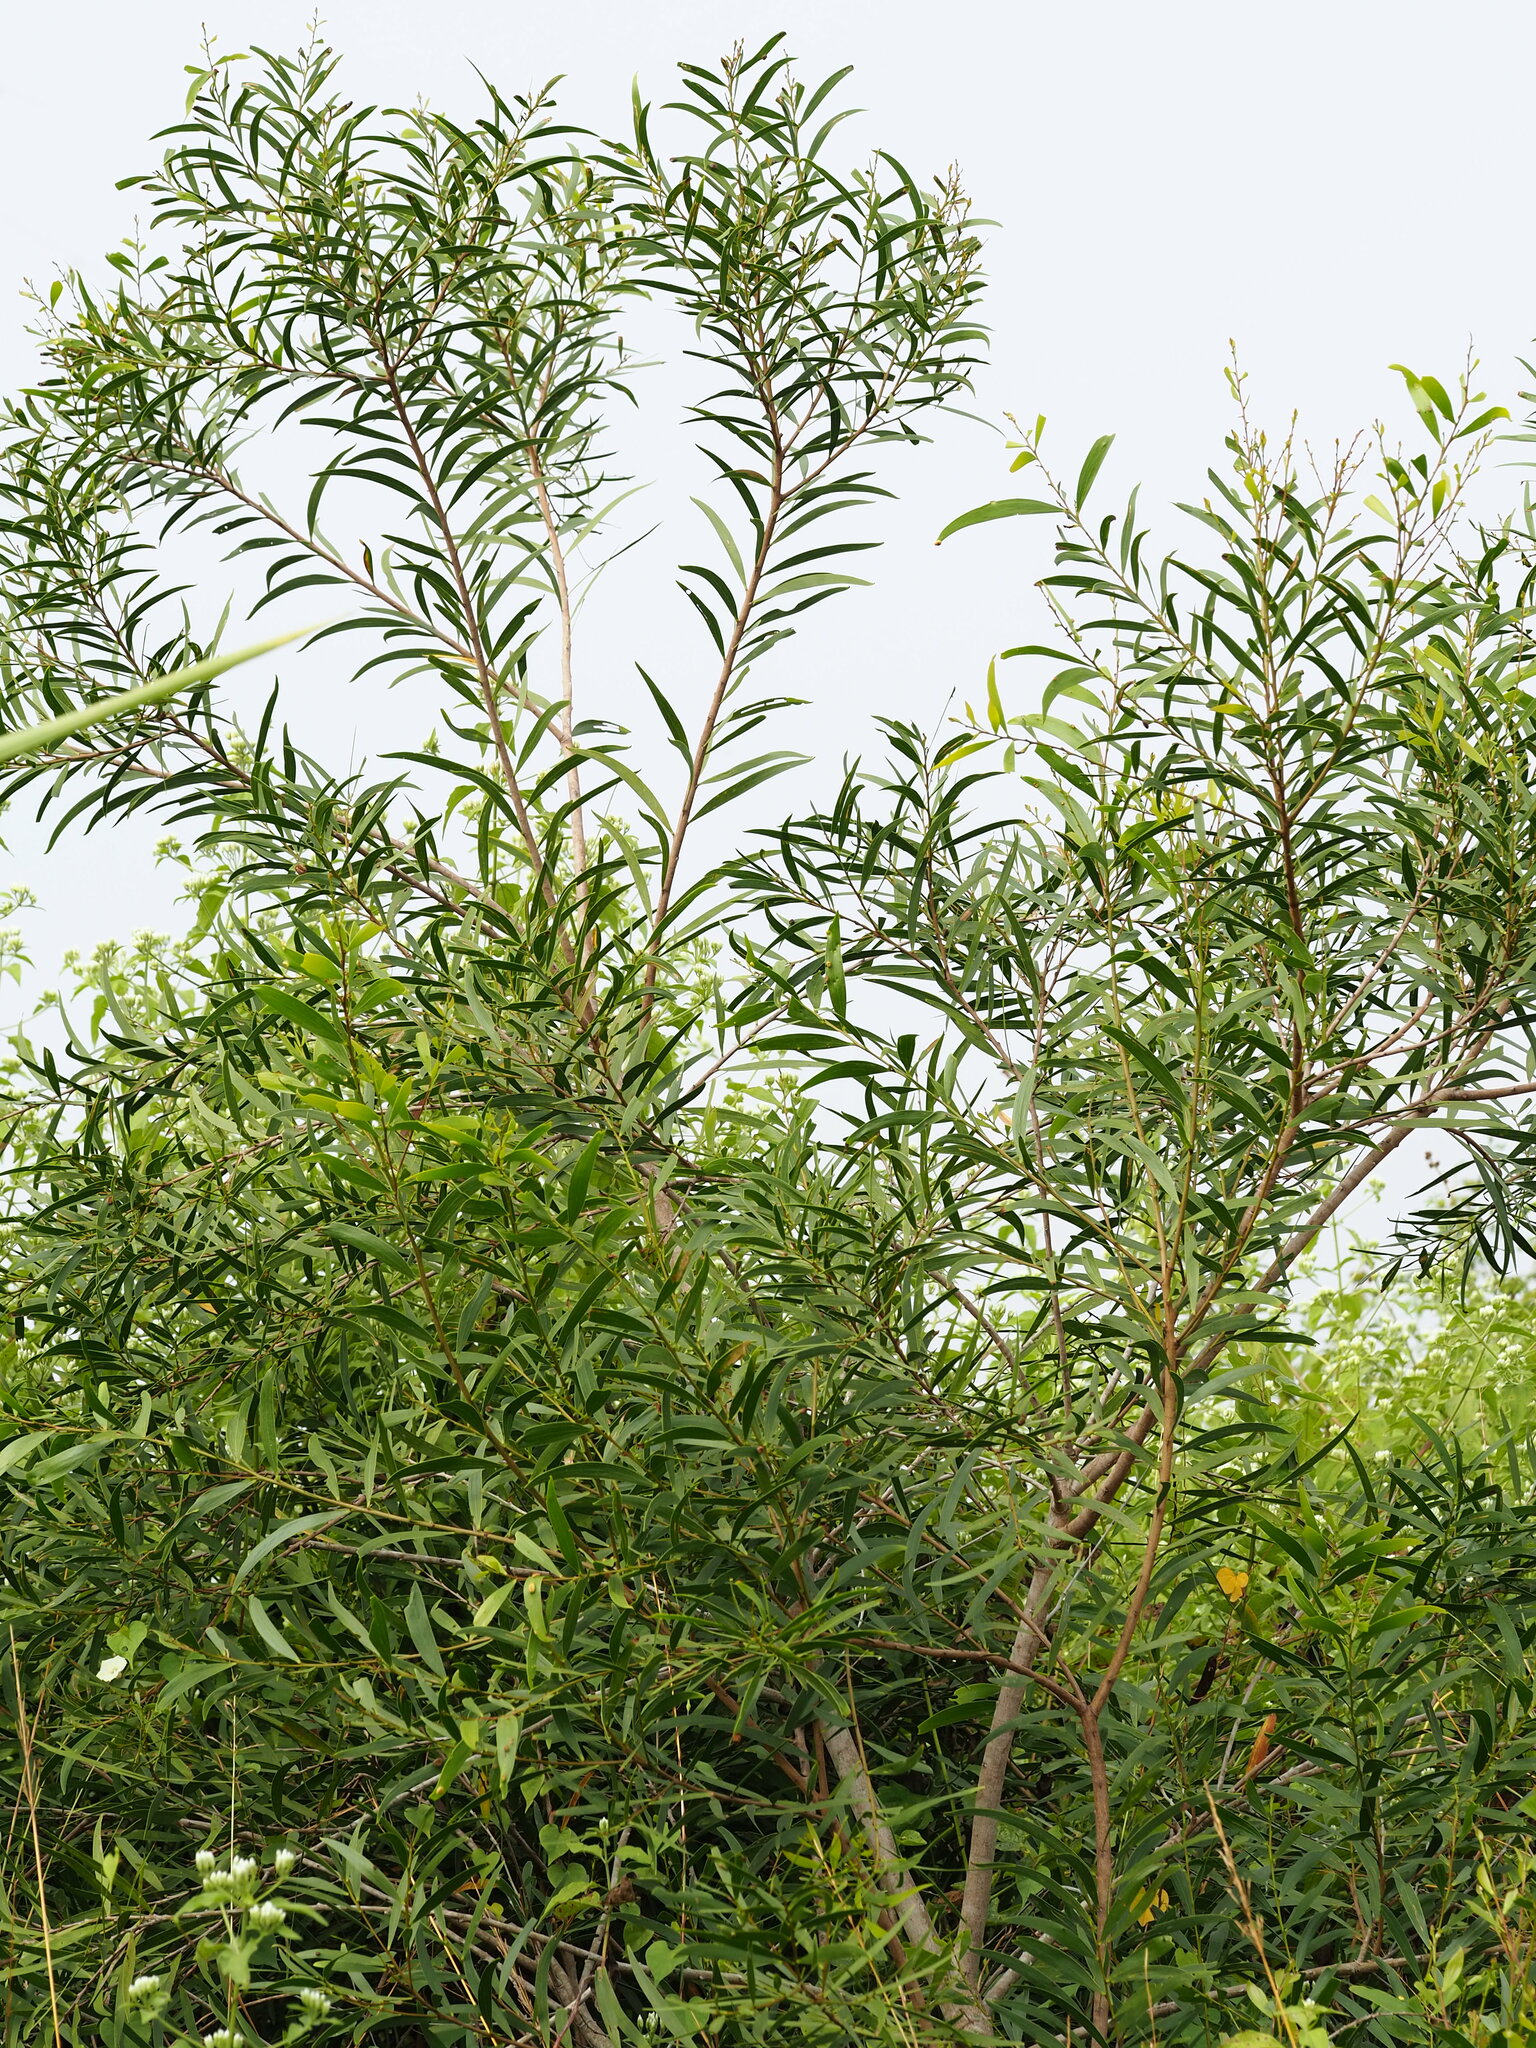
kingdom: Plantae
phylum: Tracheophyta
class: Magnoliopsida
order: Fabales
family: Fabaceae
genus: Acacia
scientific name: Acacia confusa
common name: Formosan koa
